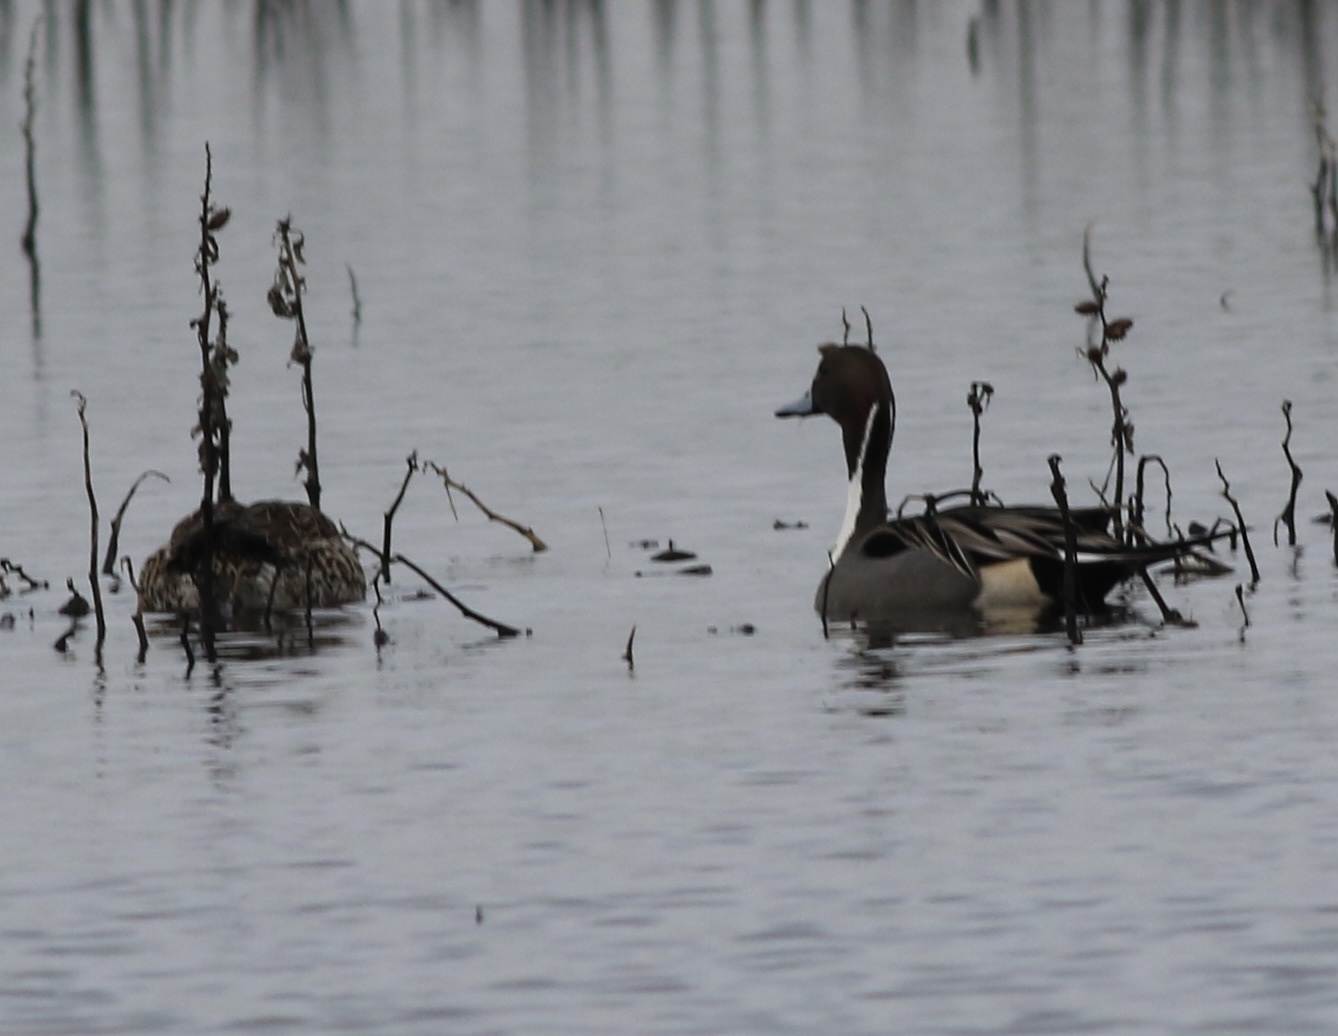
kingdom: Animalia
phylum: Chordata
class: Aves
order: Anseriformes
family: Anatidae
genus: Anas
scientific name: Anas acuta
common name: Northern pintail
